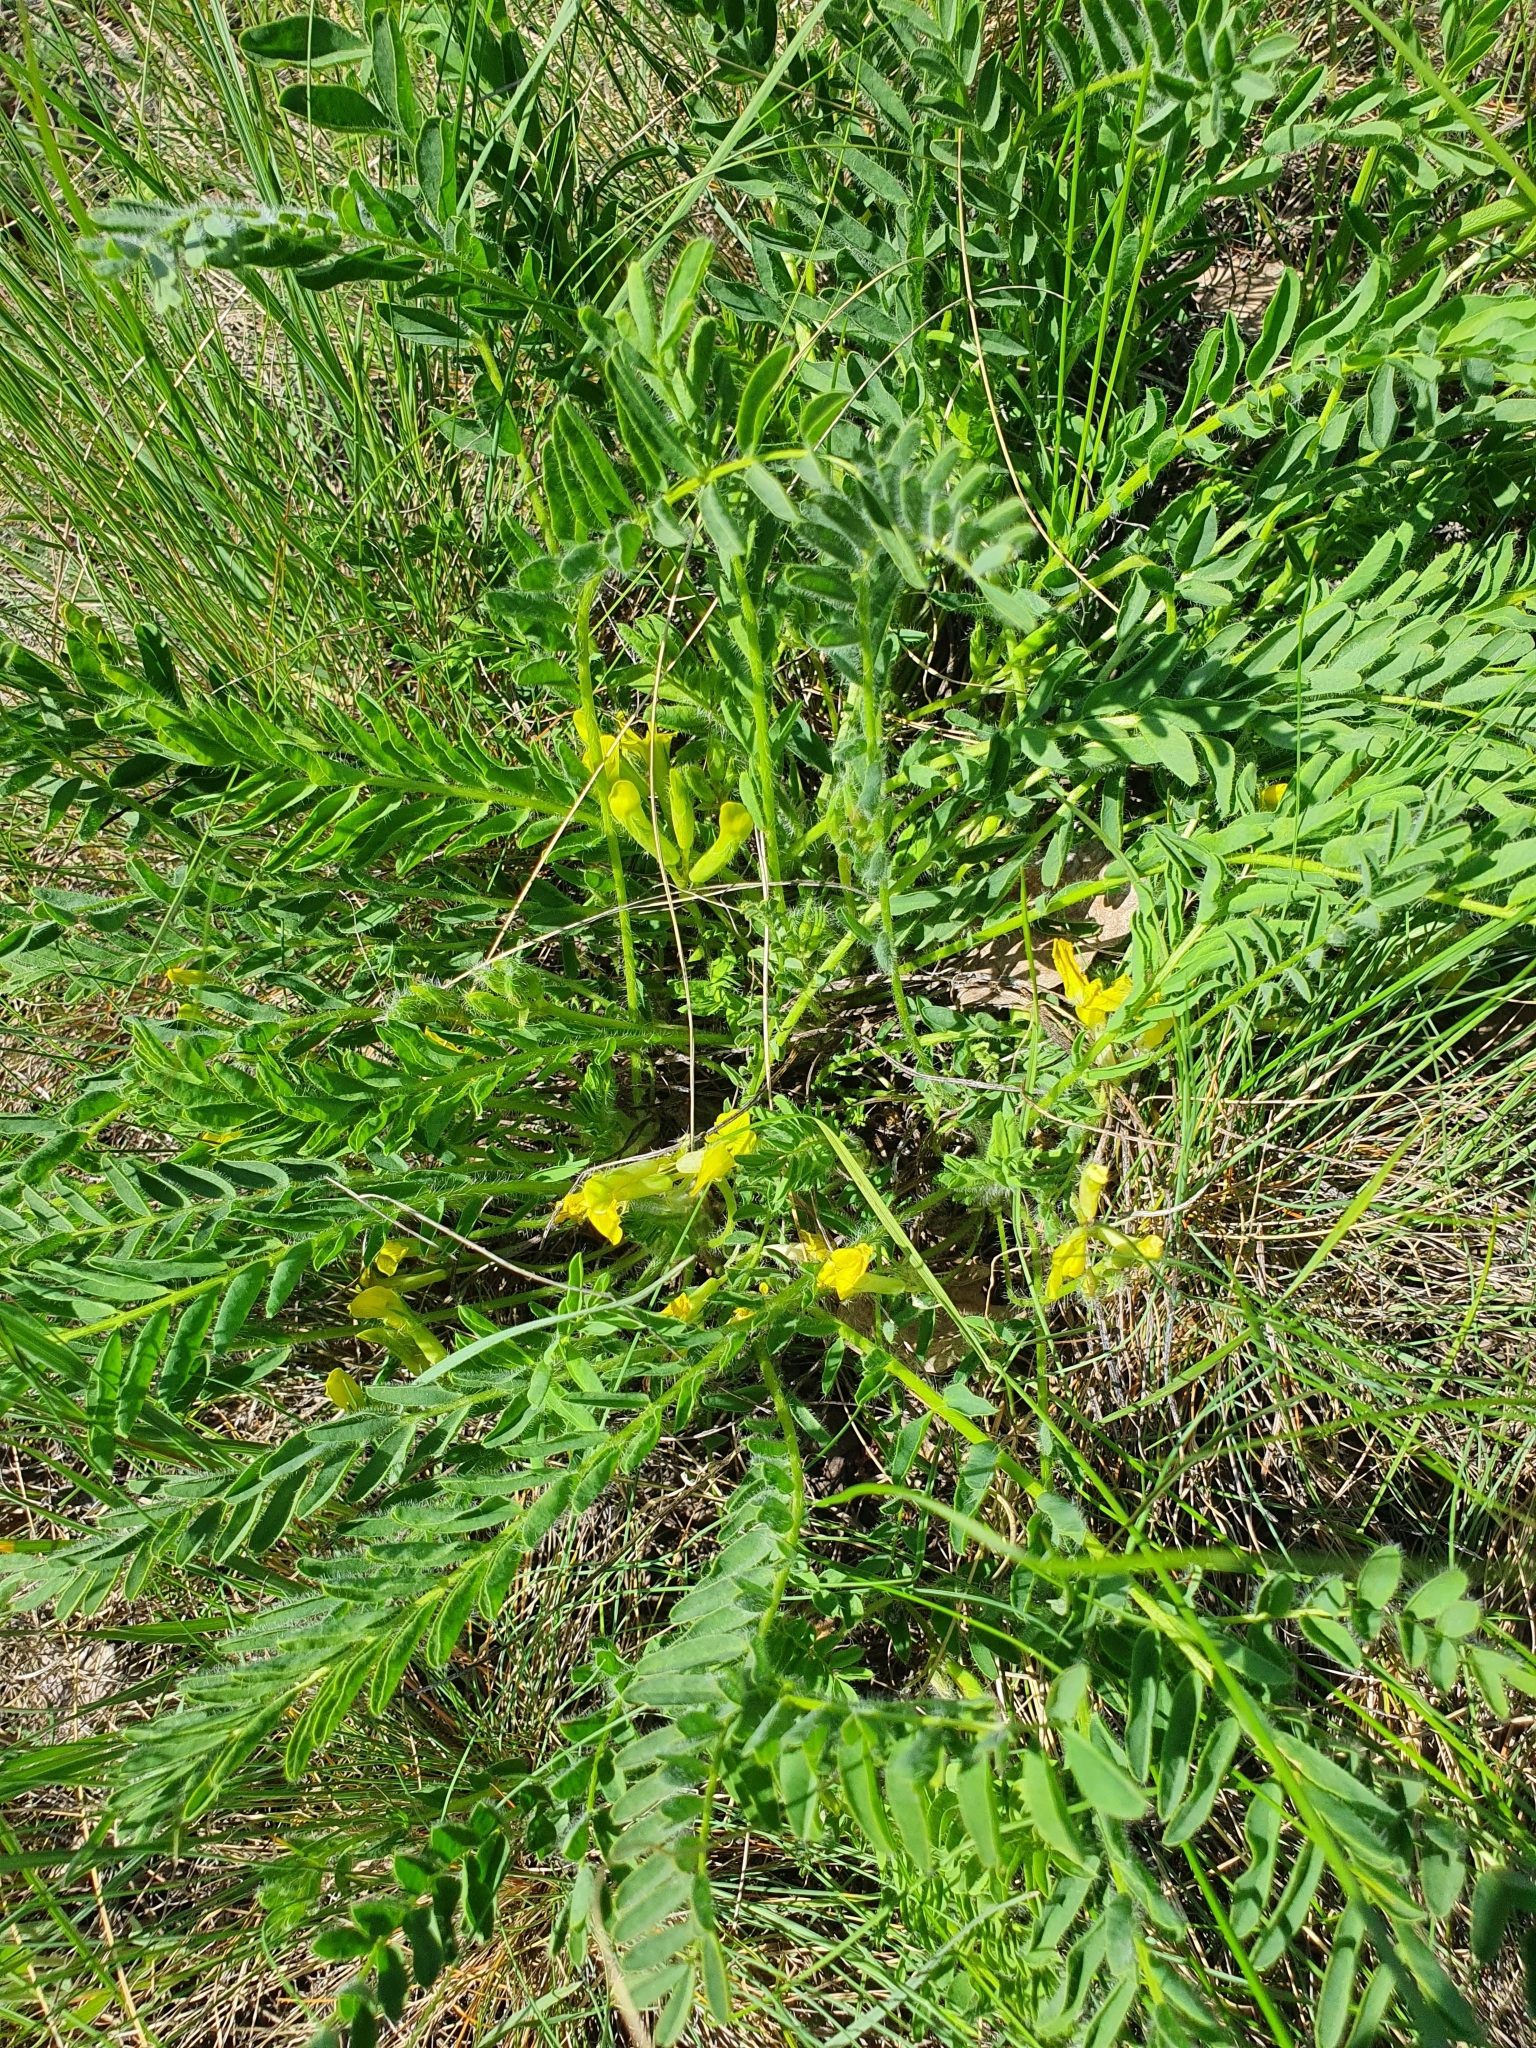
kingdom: Plantae
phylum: Tracheophyta
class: Magnoliopsida
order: Fabales
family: Fabaceae
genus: Astragalus
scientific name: Astragalus wolgensis
